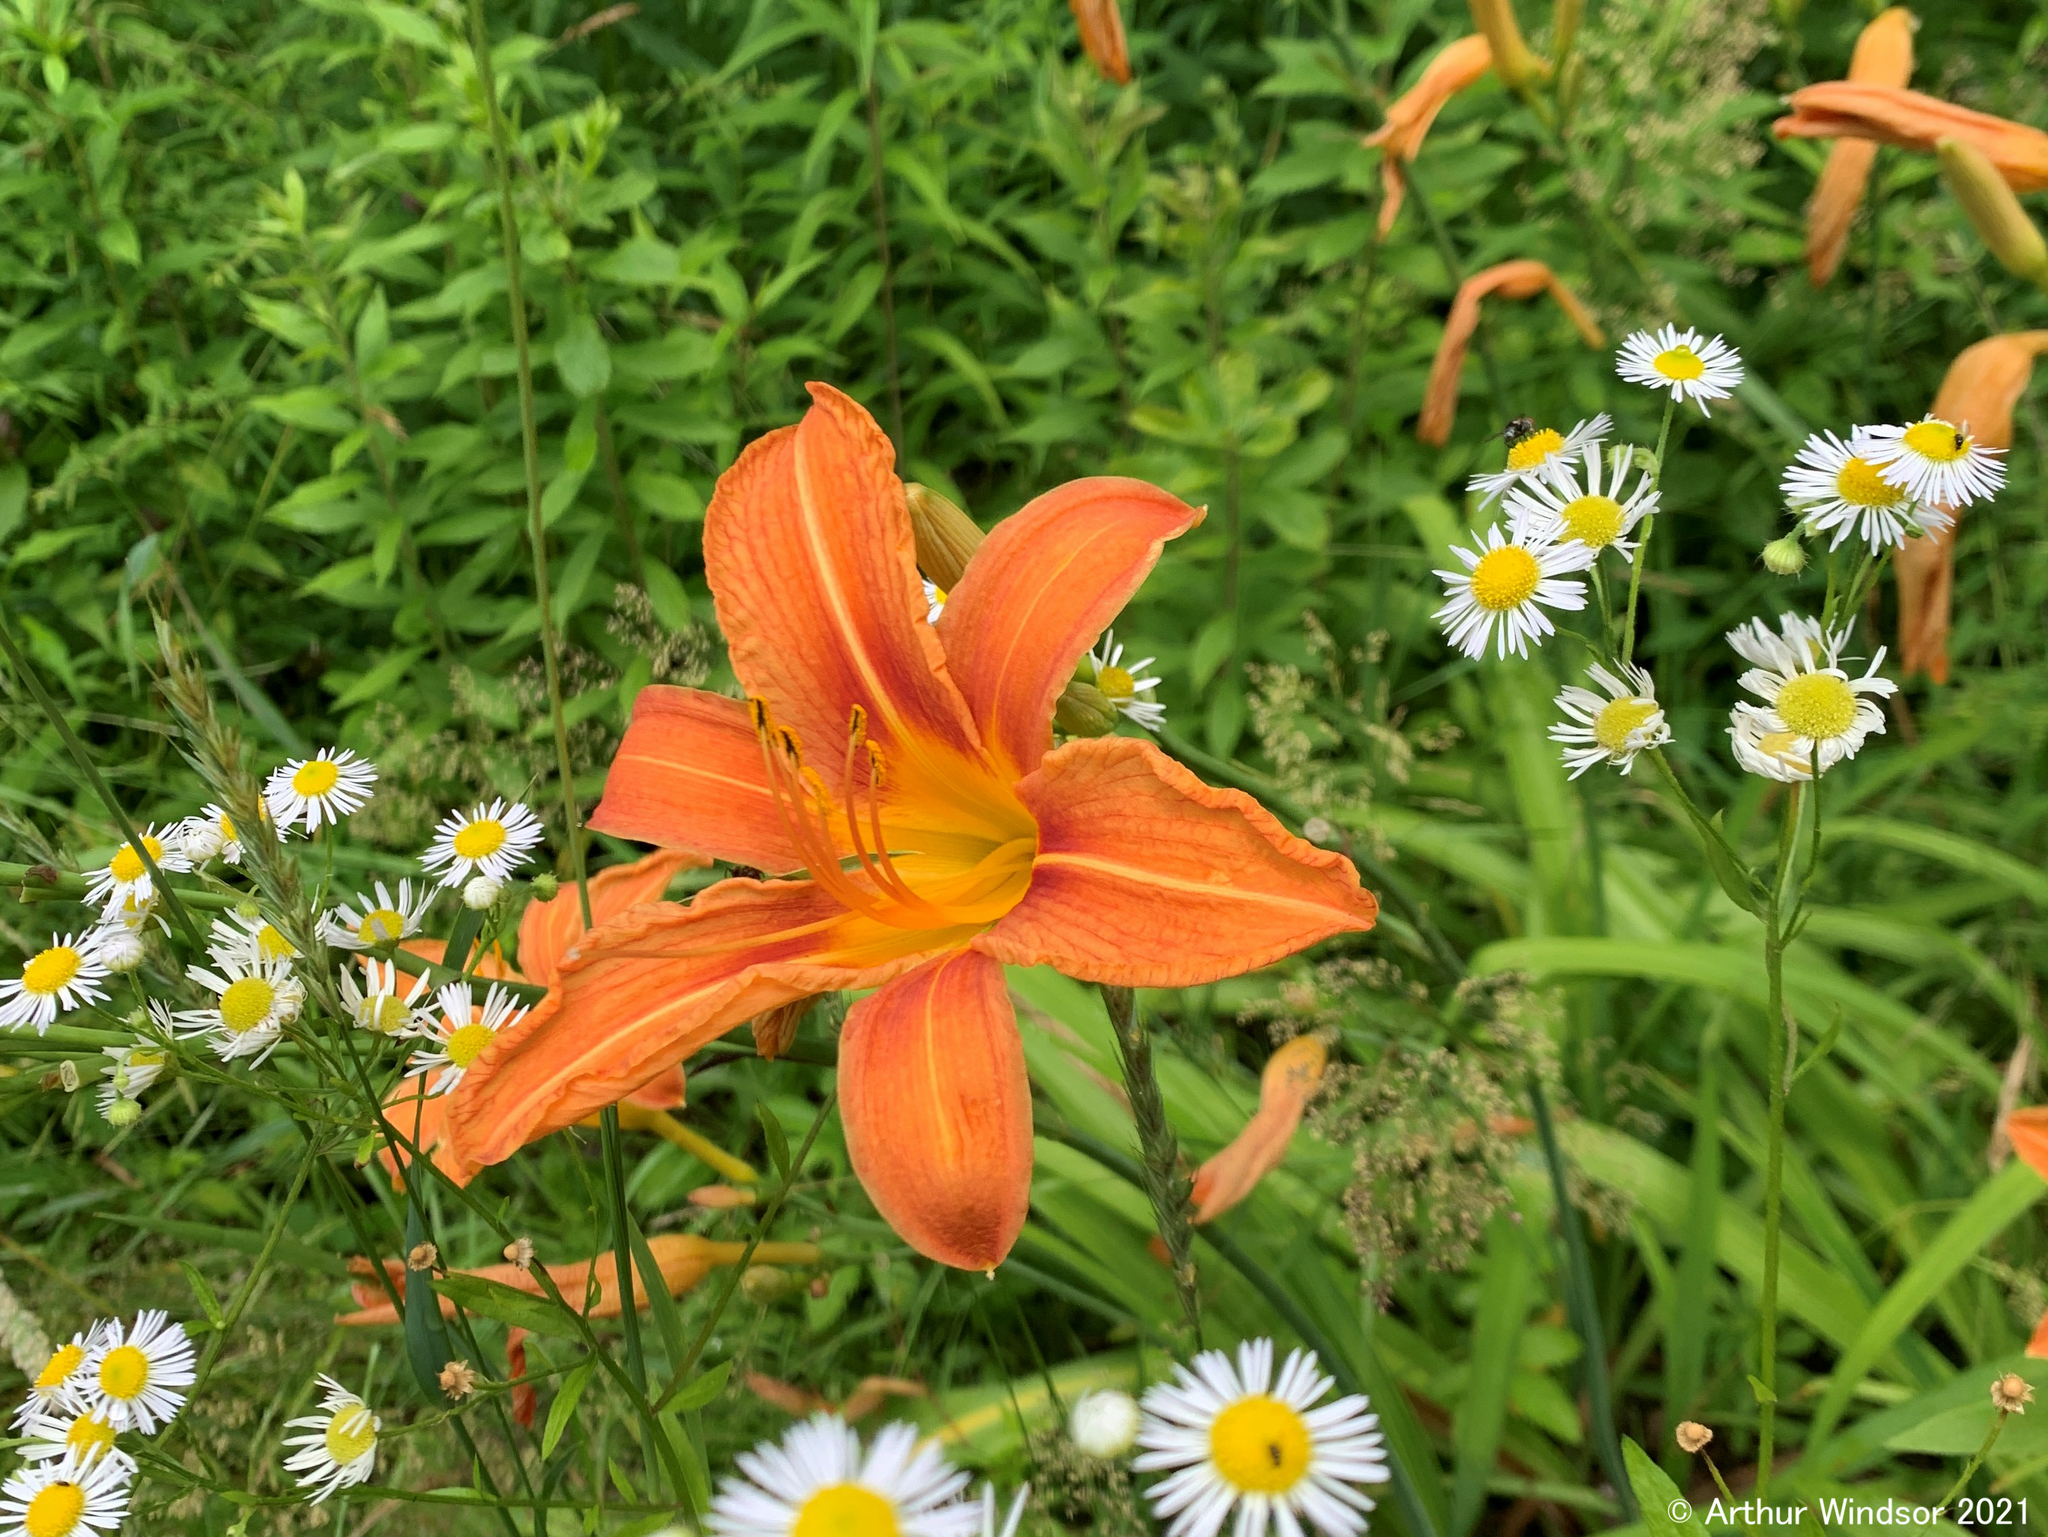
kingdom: Plantae
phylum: Tracheophyta
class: Liliopsida
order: Asparagales
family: Asphodelaceae
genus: Hemerocallis
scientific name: Hemerocallis fulva
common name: Orange day-lily
